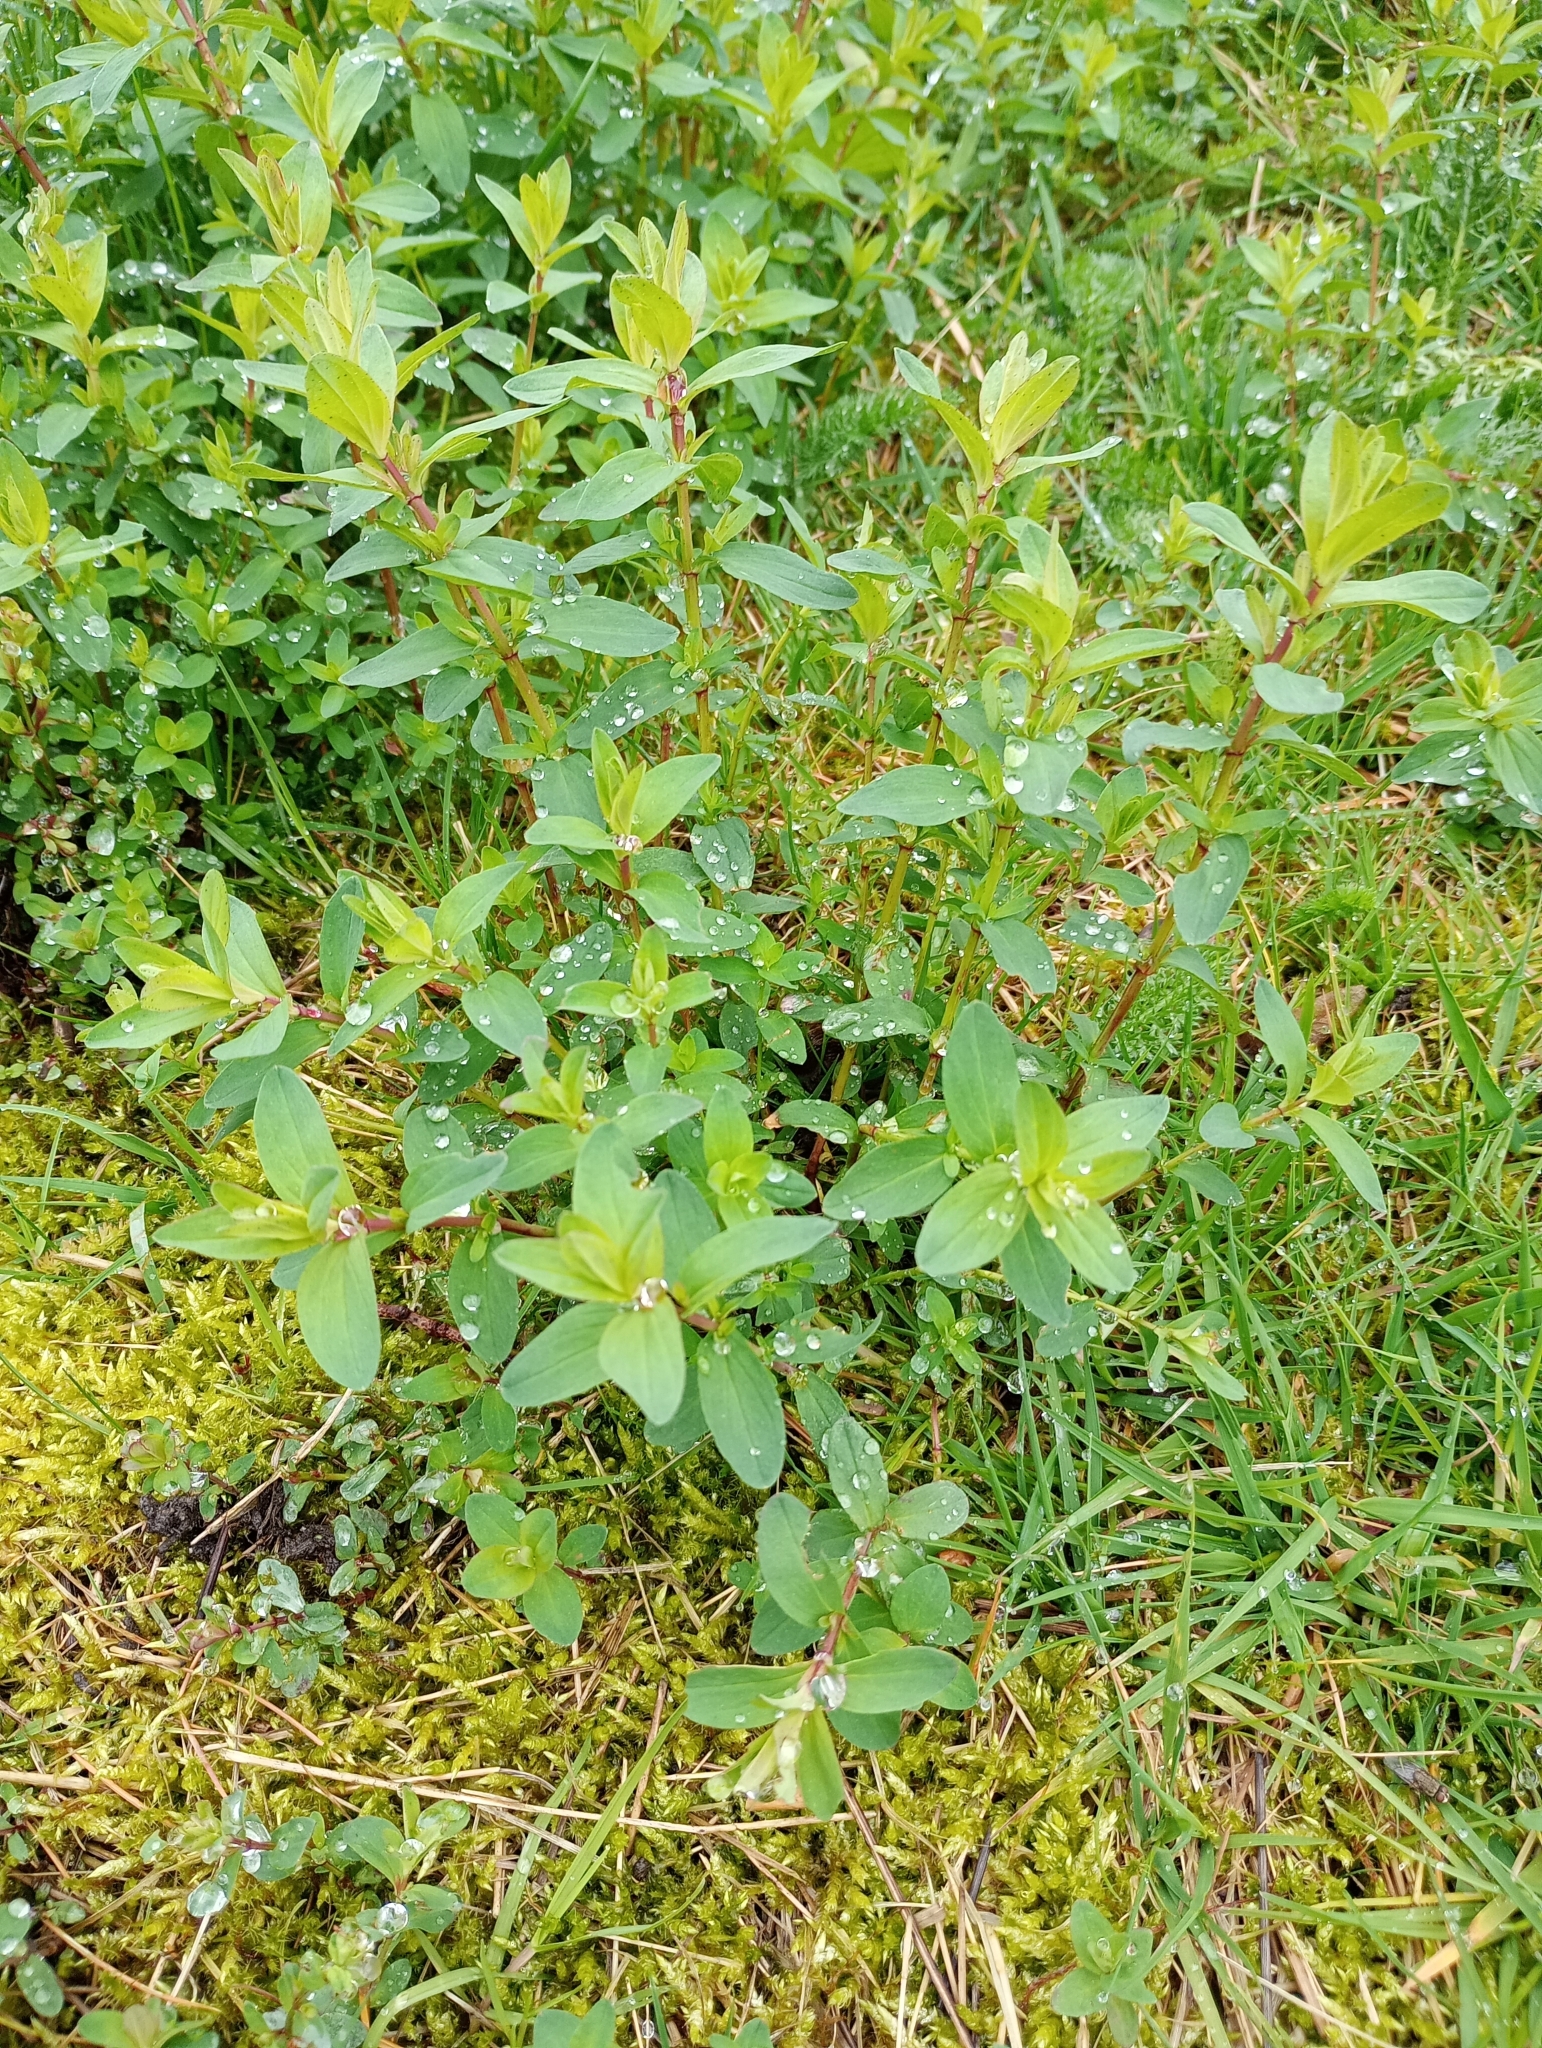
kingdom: Plantae
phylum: Tracheophyta
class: Magnoliopsida
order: Malpighiales
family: Hypericaceae
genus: Hypericum
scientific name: Hypericum perforatum
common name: Common st. johnswort
